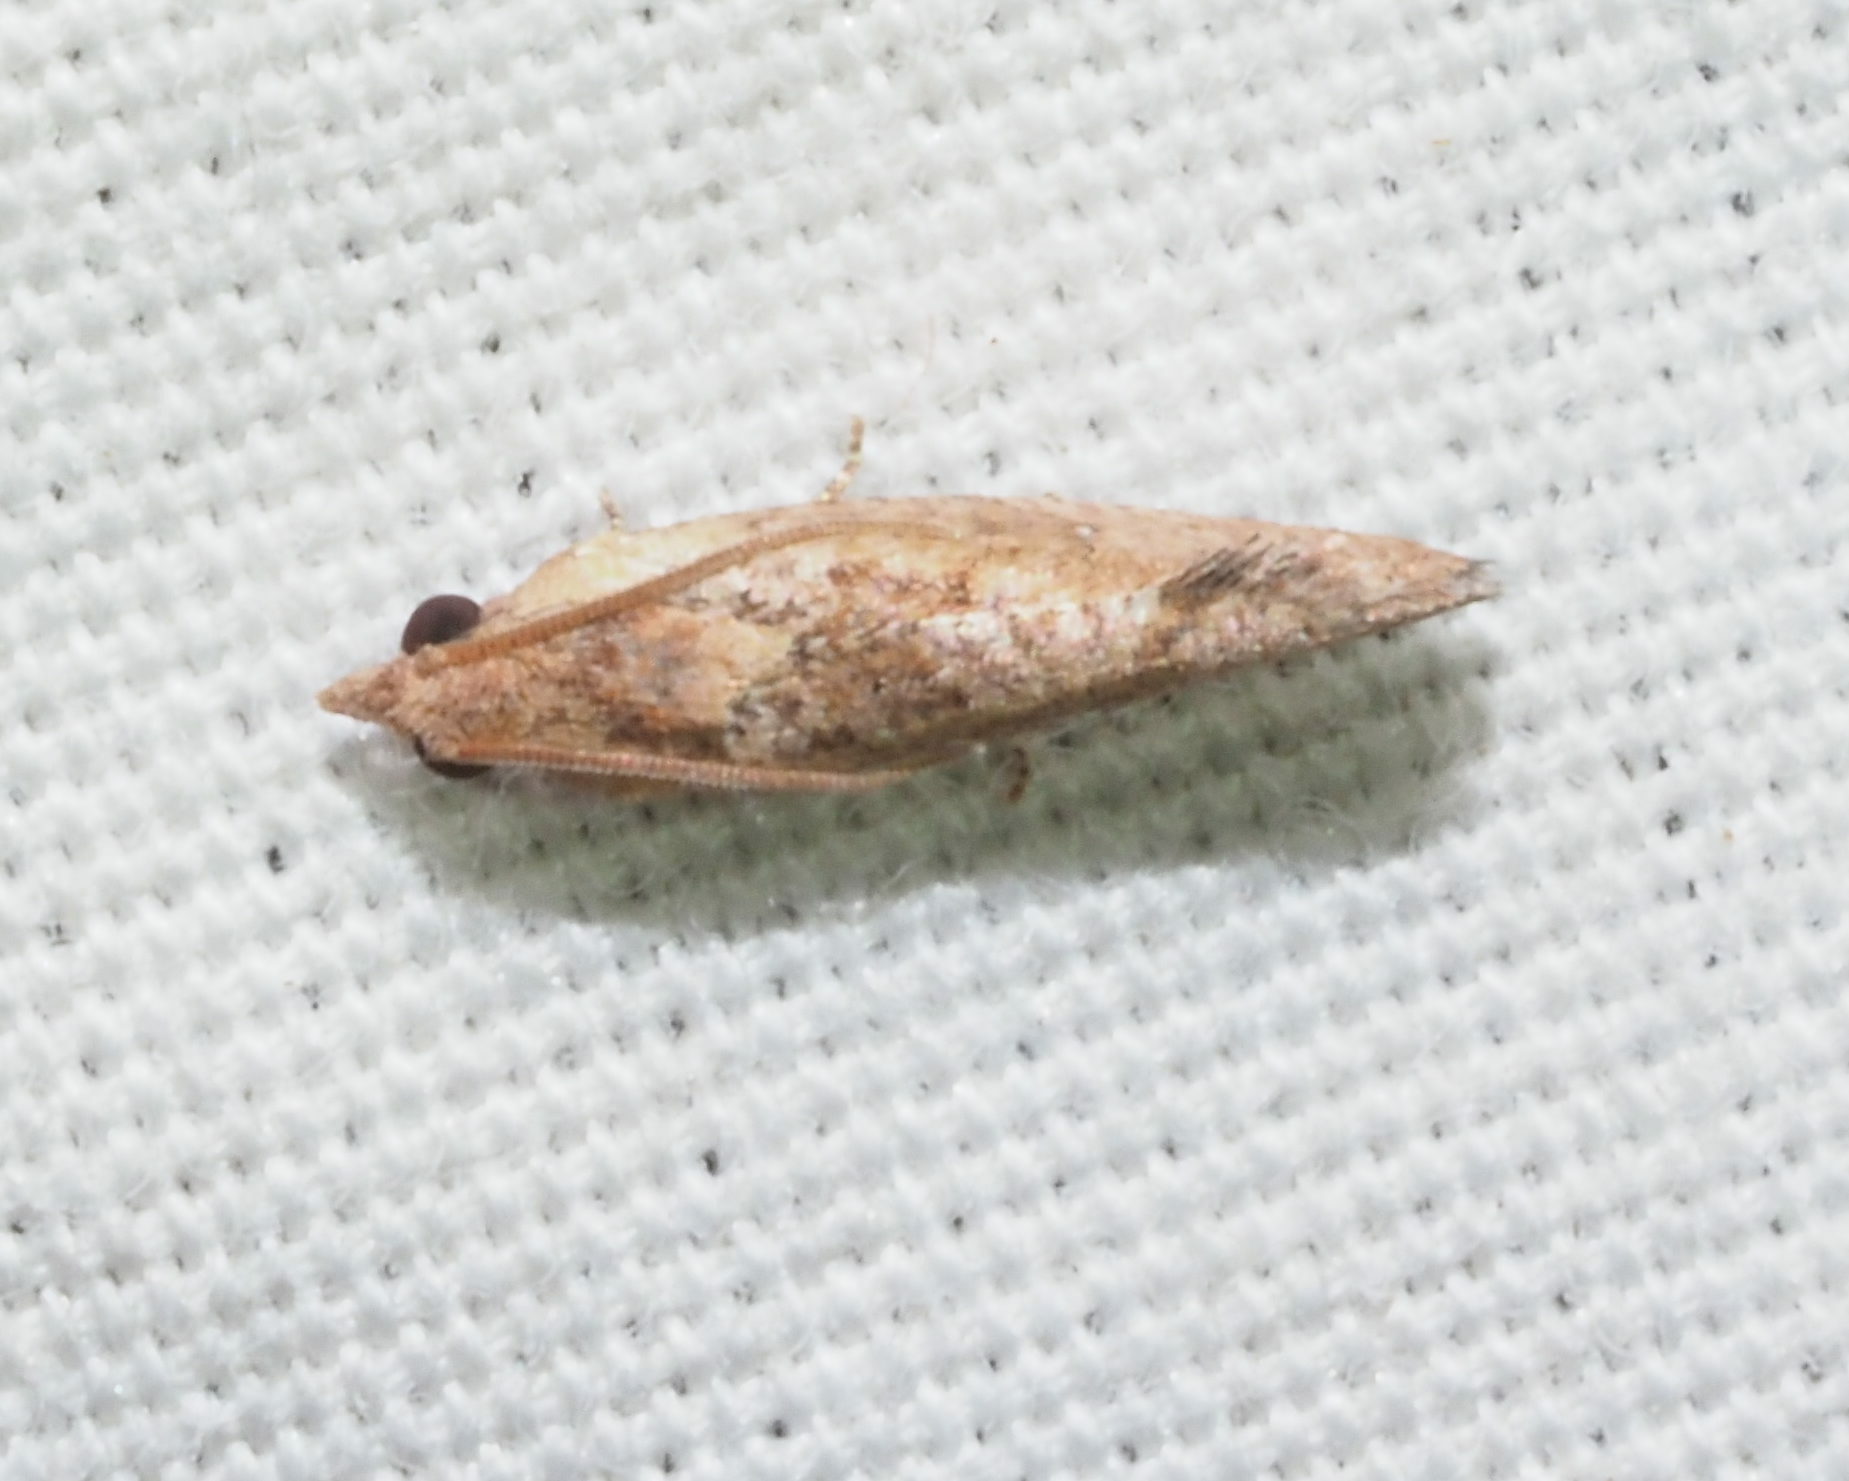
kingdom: Animalia
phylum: Arthropoda
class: Insecta
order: Lepidoptera
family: Tortricidae
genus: Cryptophlebia
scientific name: Cryptophlebia illepida
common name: Moth
